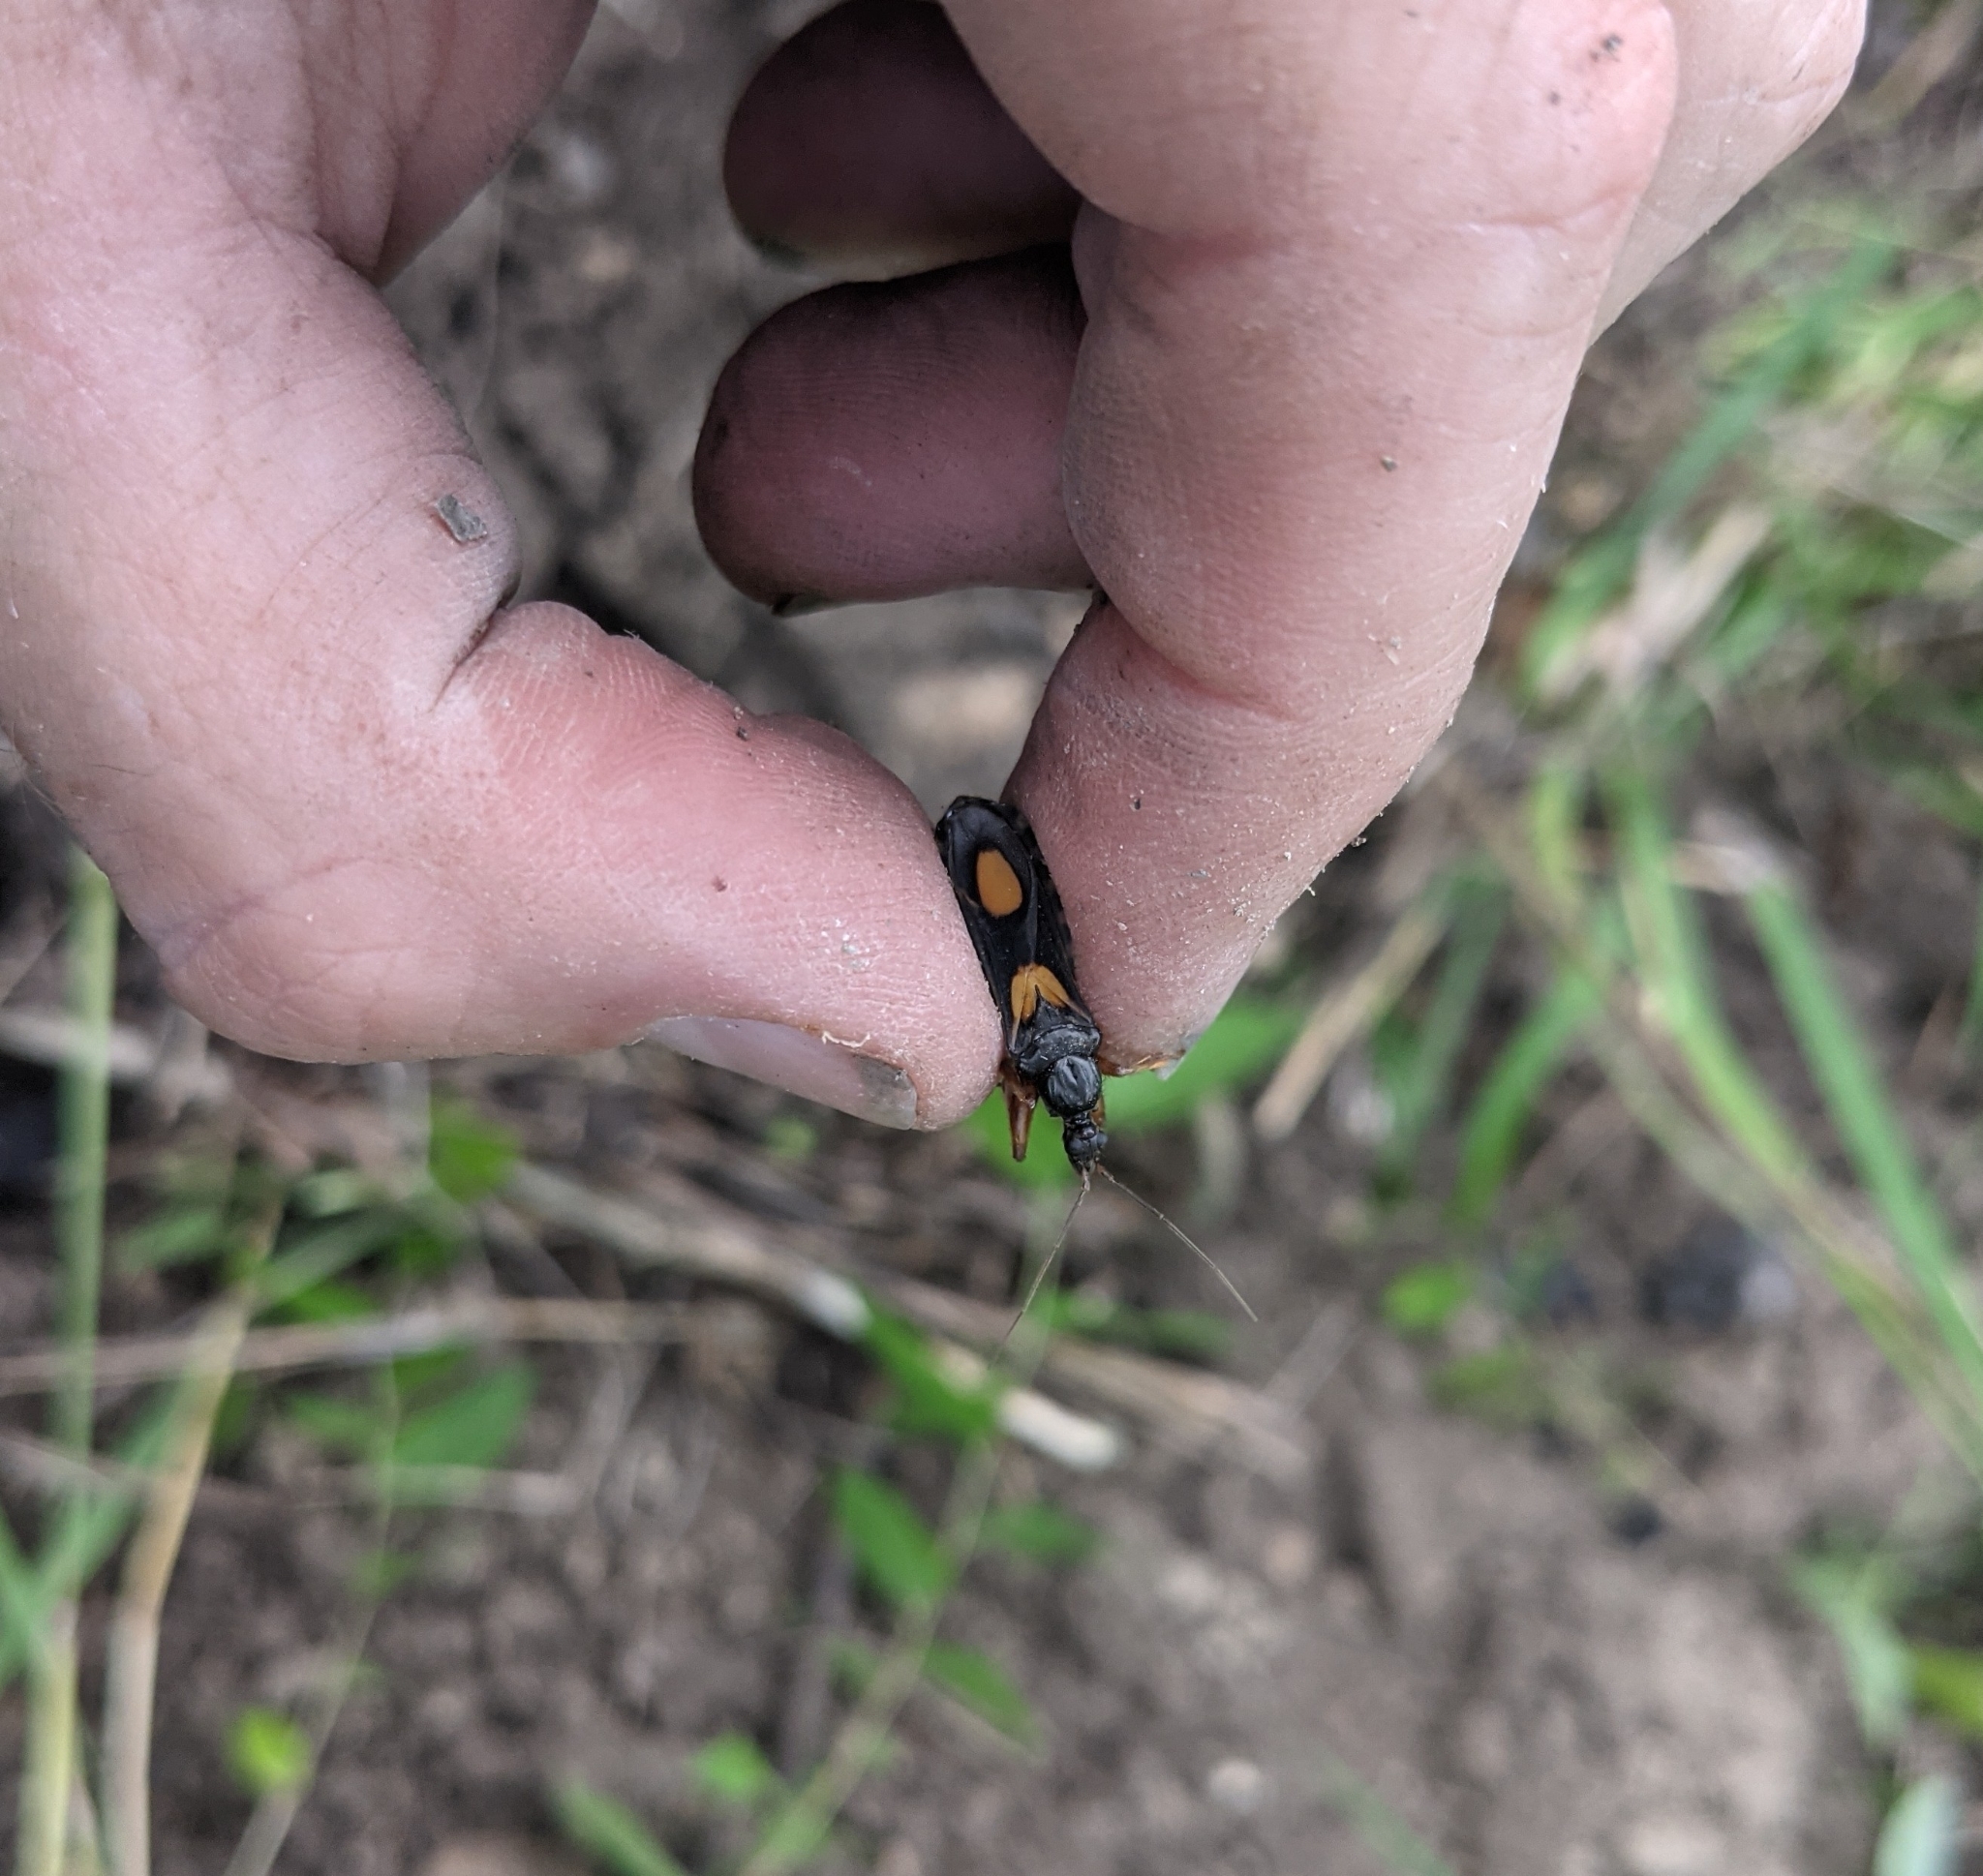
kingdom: Animalia
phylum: Arthropoda
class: Insecta
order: Hemiptera
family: Reduviidae
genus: Rasahus
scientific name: Rasahus hamatus
